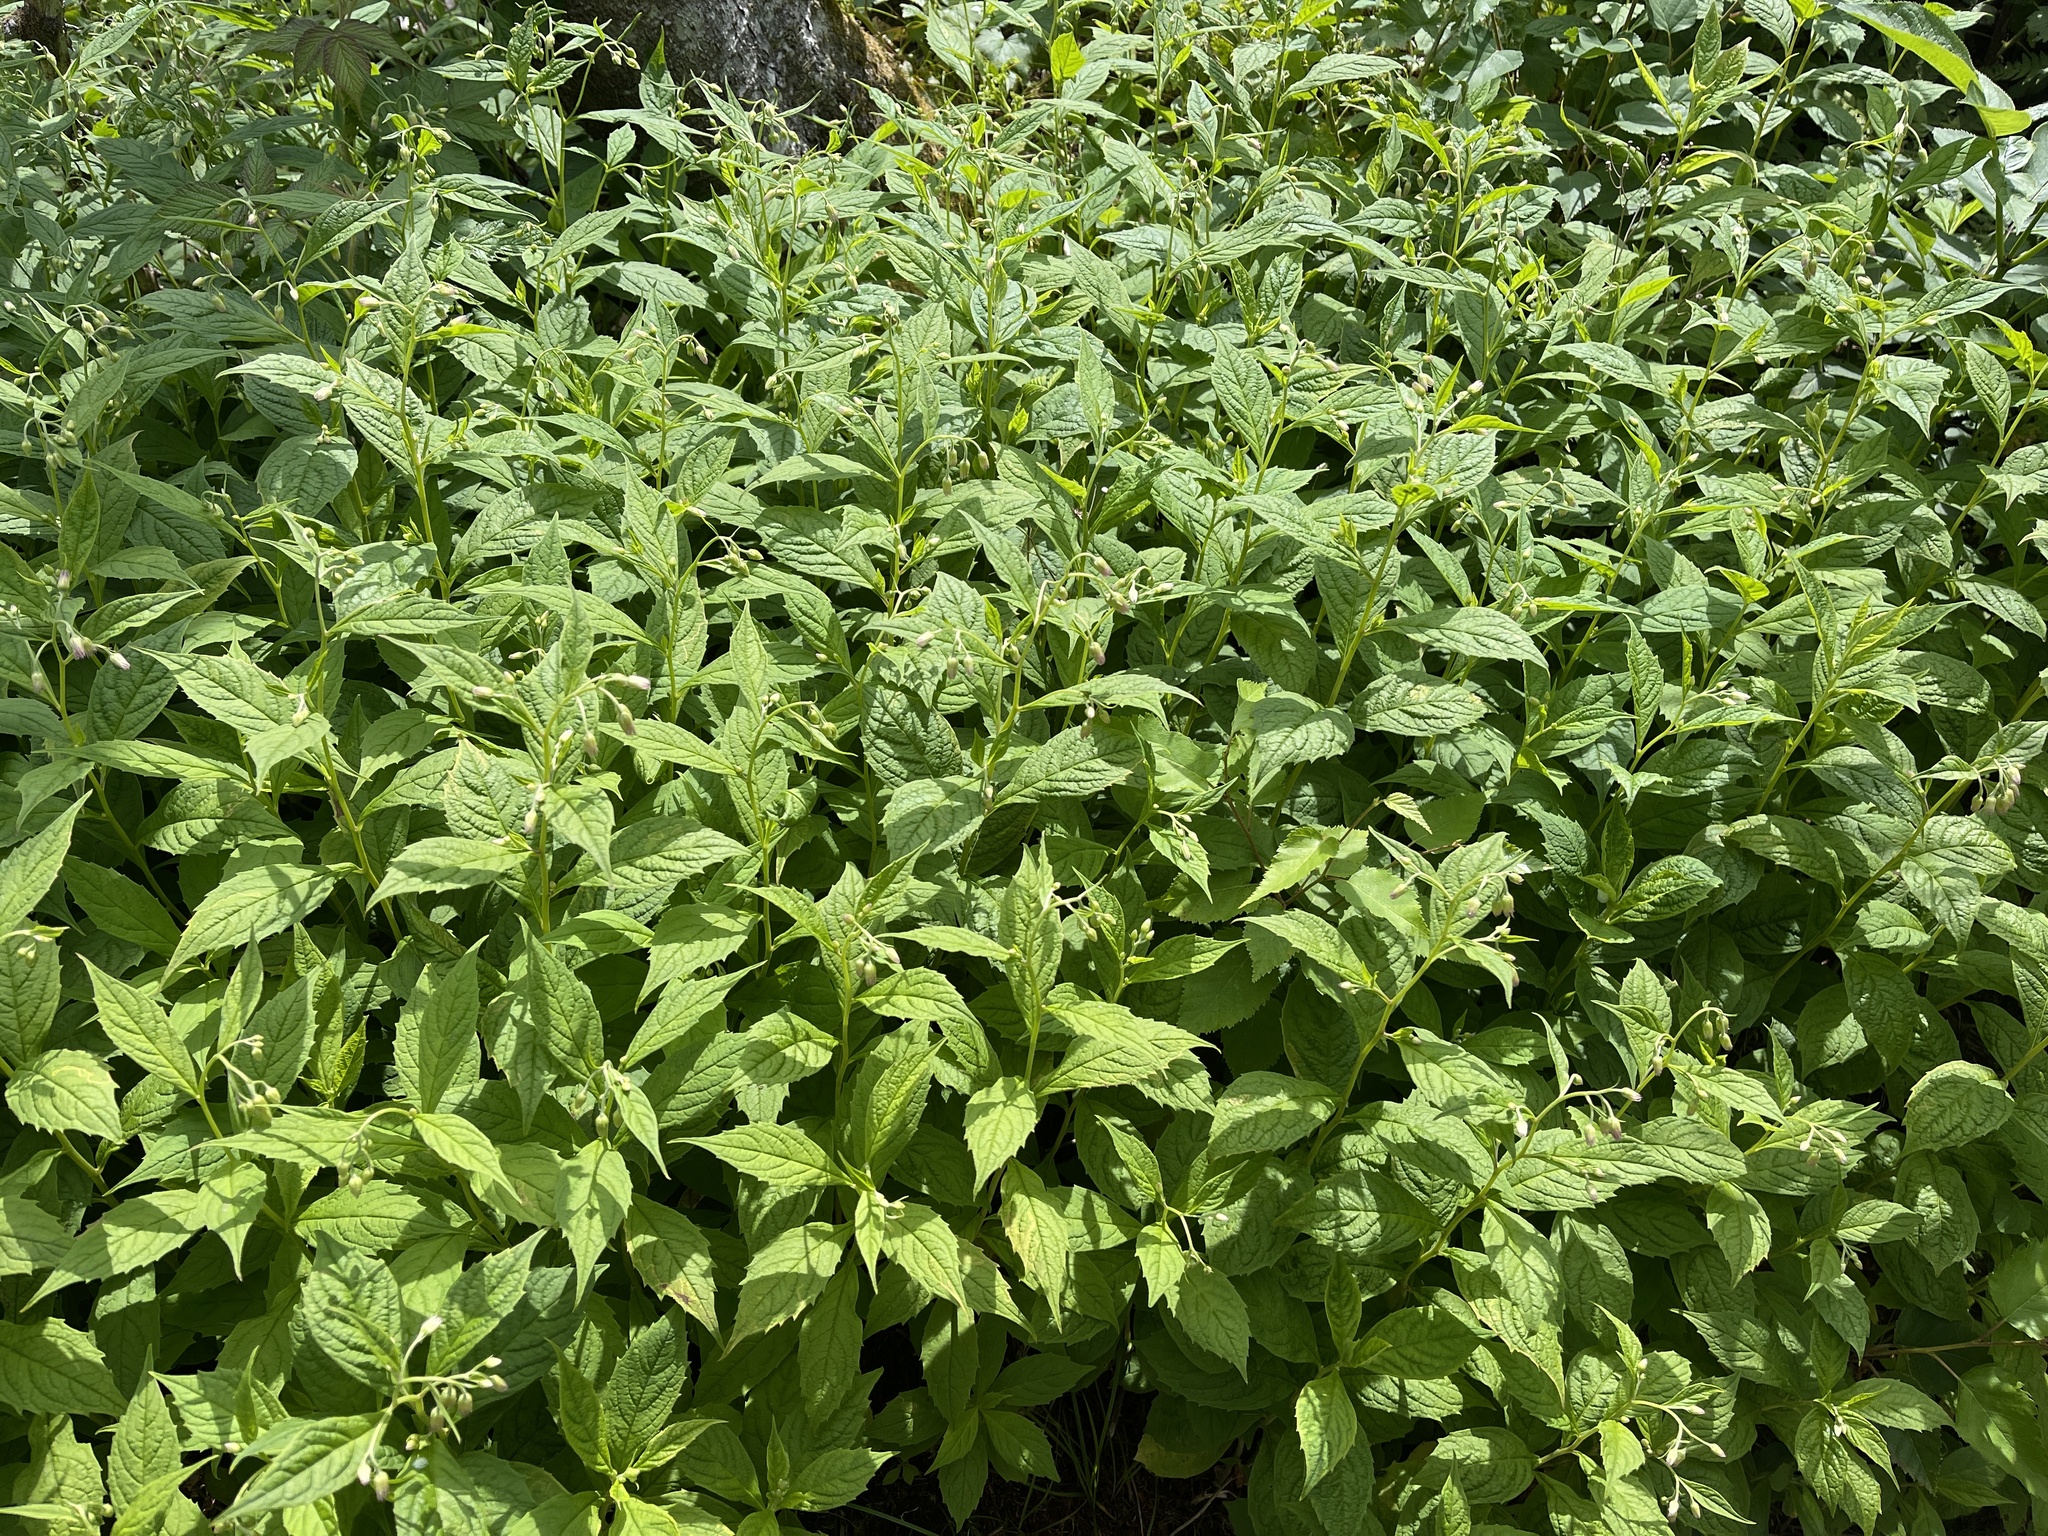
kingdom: Plantae
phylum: Tracheophyta
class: Magnoliopsida
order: Asterales
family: Asteraceae
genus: Oclemena
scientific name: Oclemena acuminata
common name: Mountain aster
